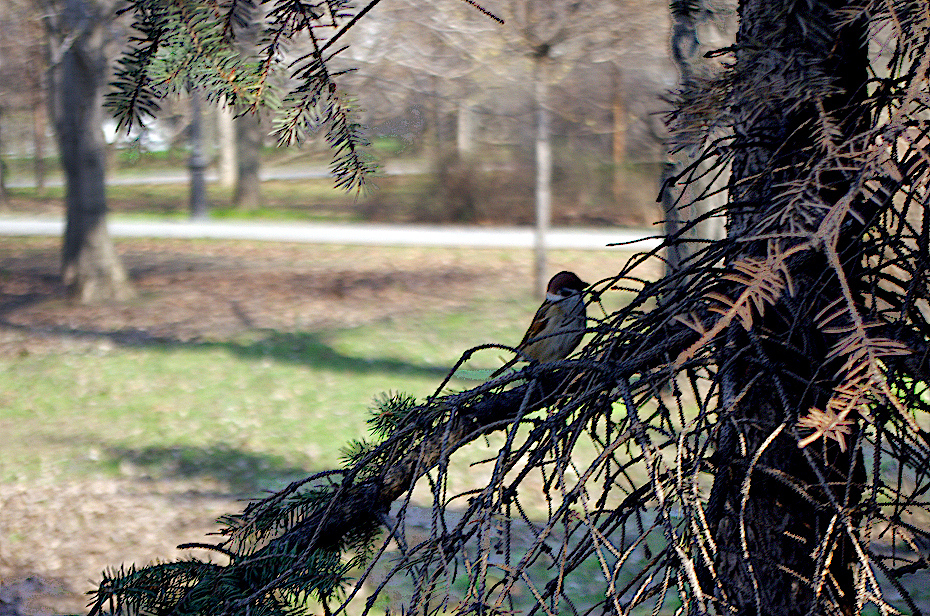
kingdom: Animalia
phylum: Chordata
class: Aves
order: Passeriformes
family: Passeridae
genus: Passer
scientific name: Passer montanus
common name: Eurasian tree sparrow
